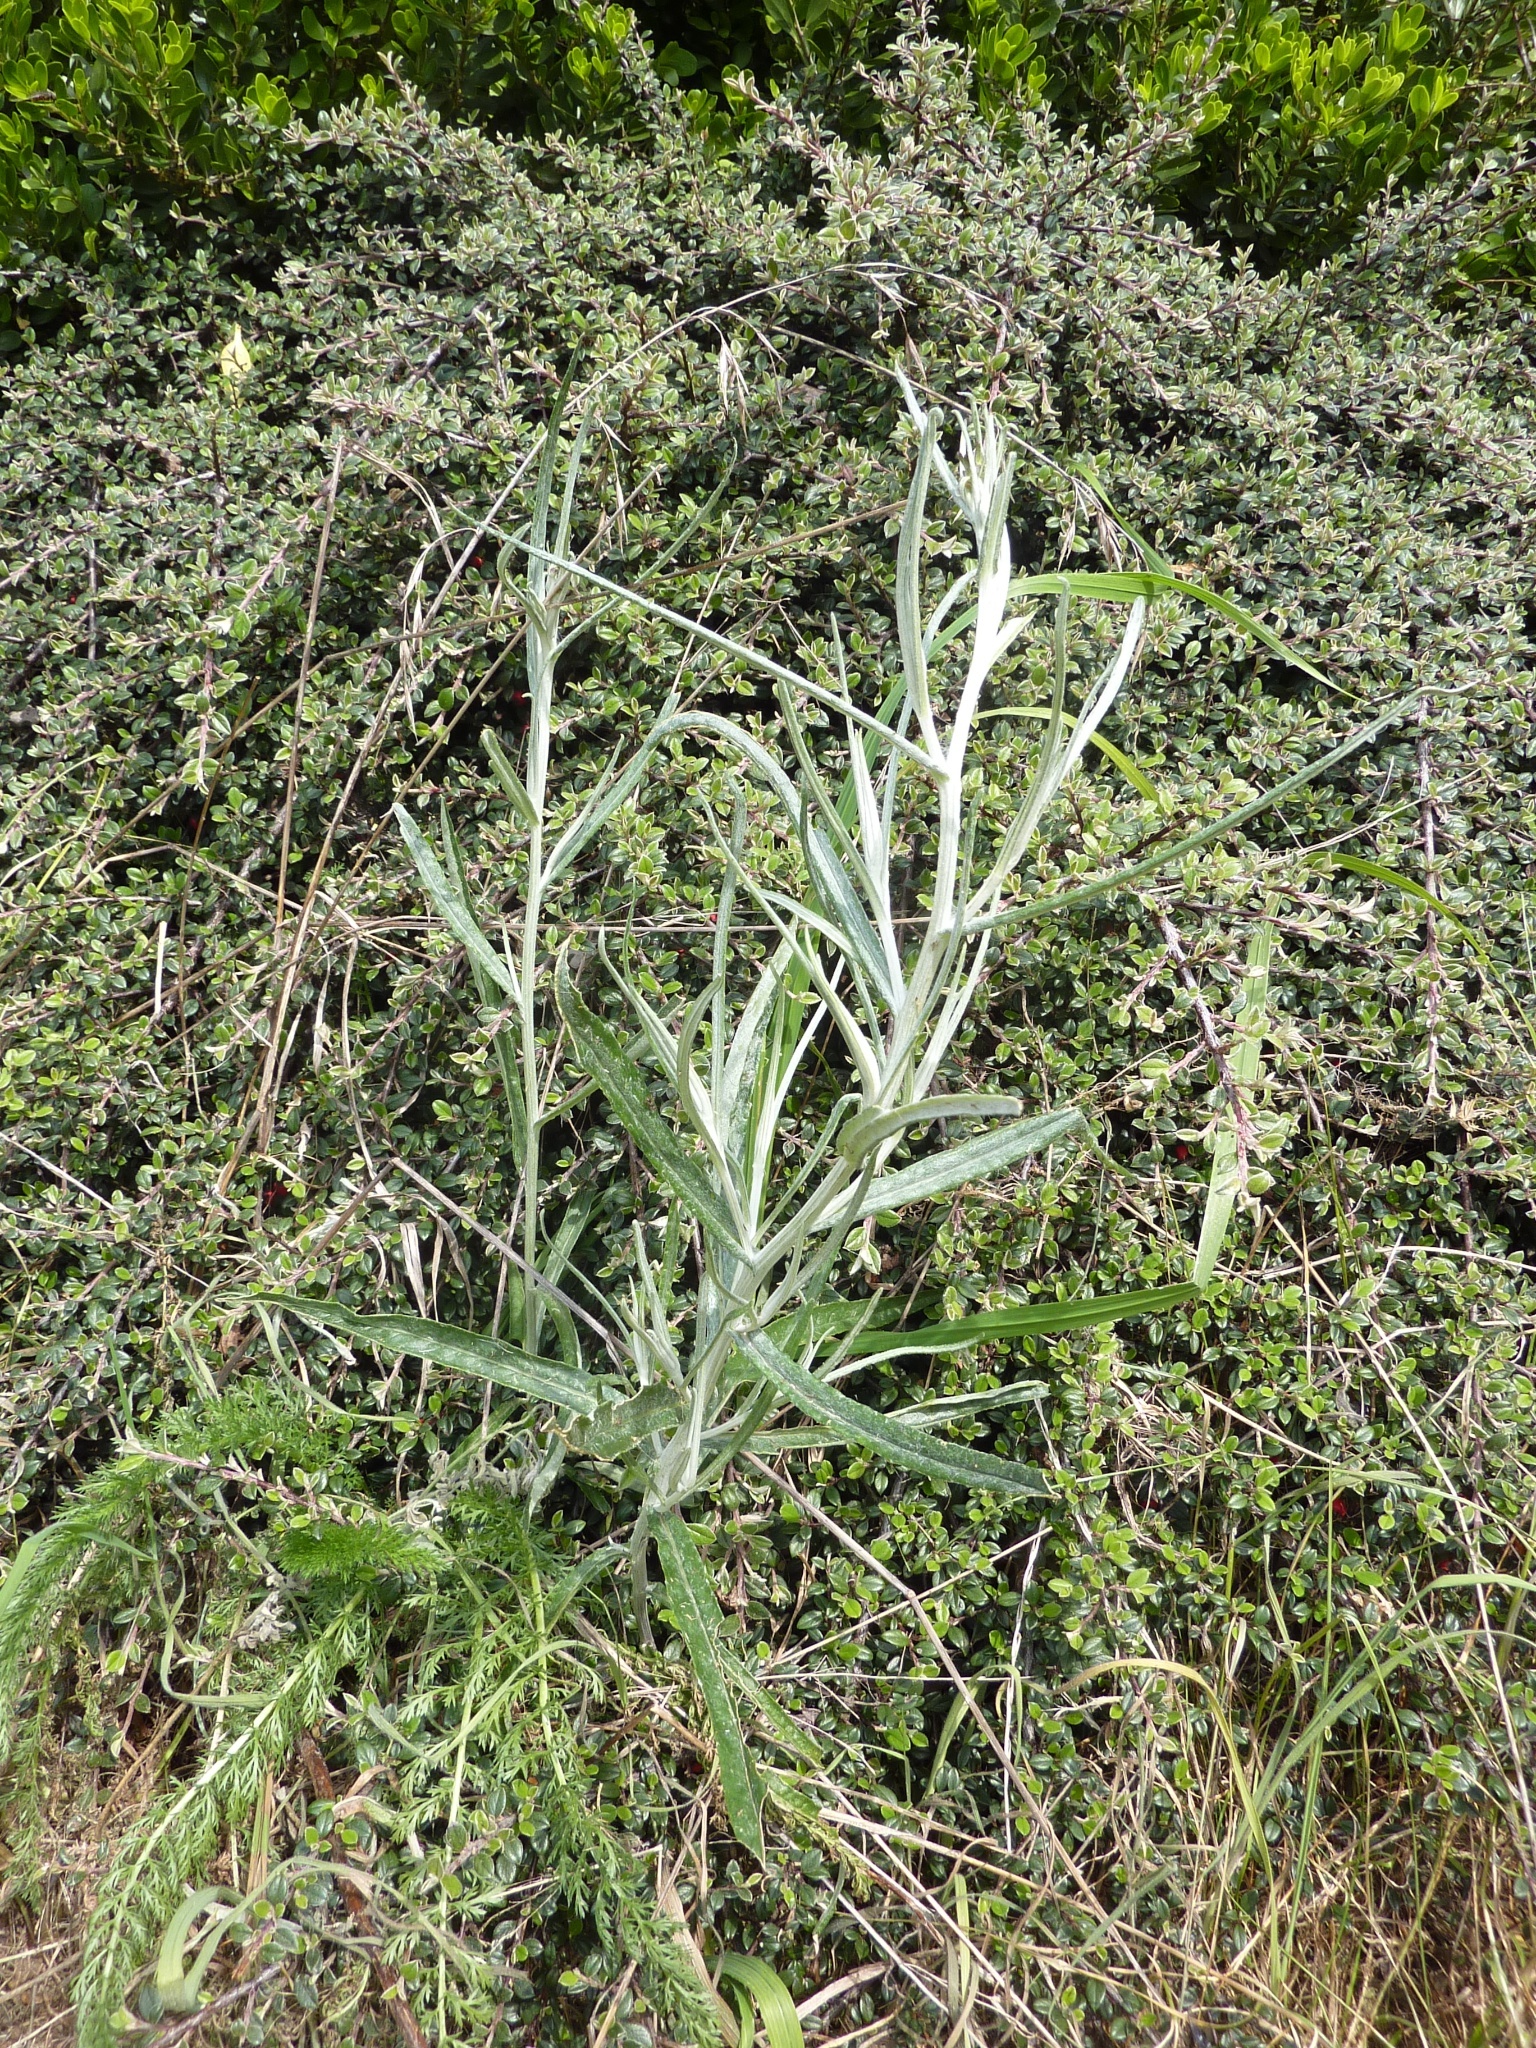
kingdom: Plantae
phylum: Tracheophyta
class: Magnoliopsida
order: Asterales
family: Asteraceae
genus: Senecio
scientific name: Senecio quadridentatus
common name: Cotton fireweed
